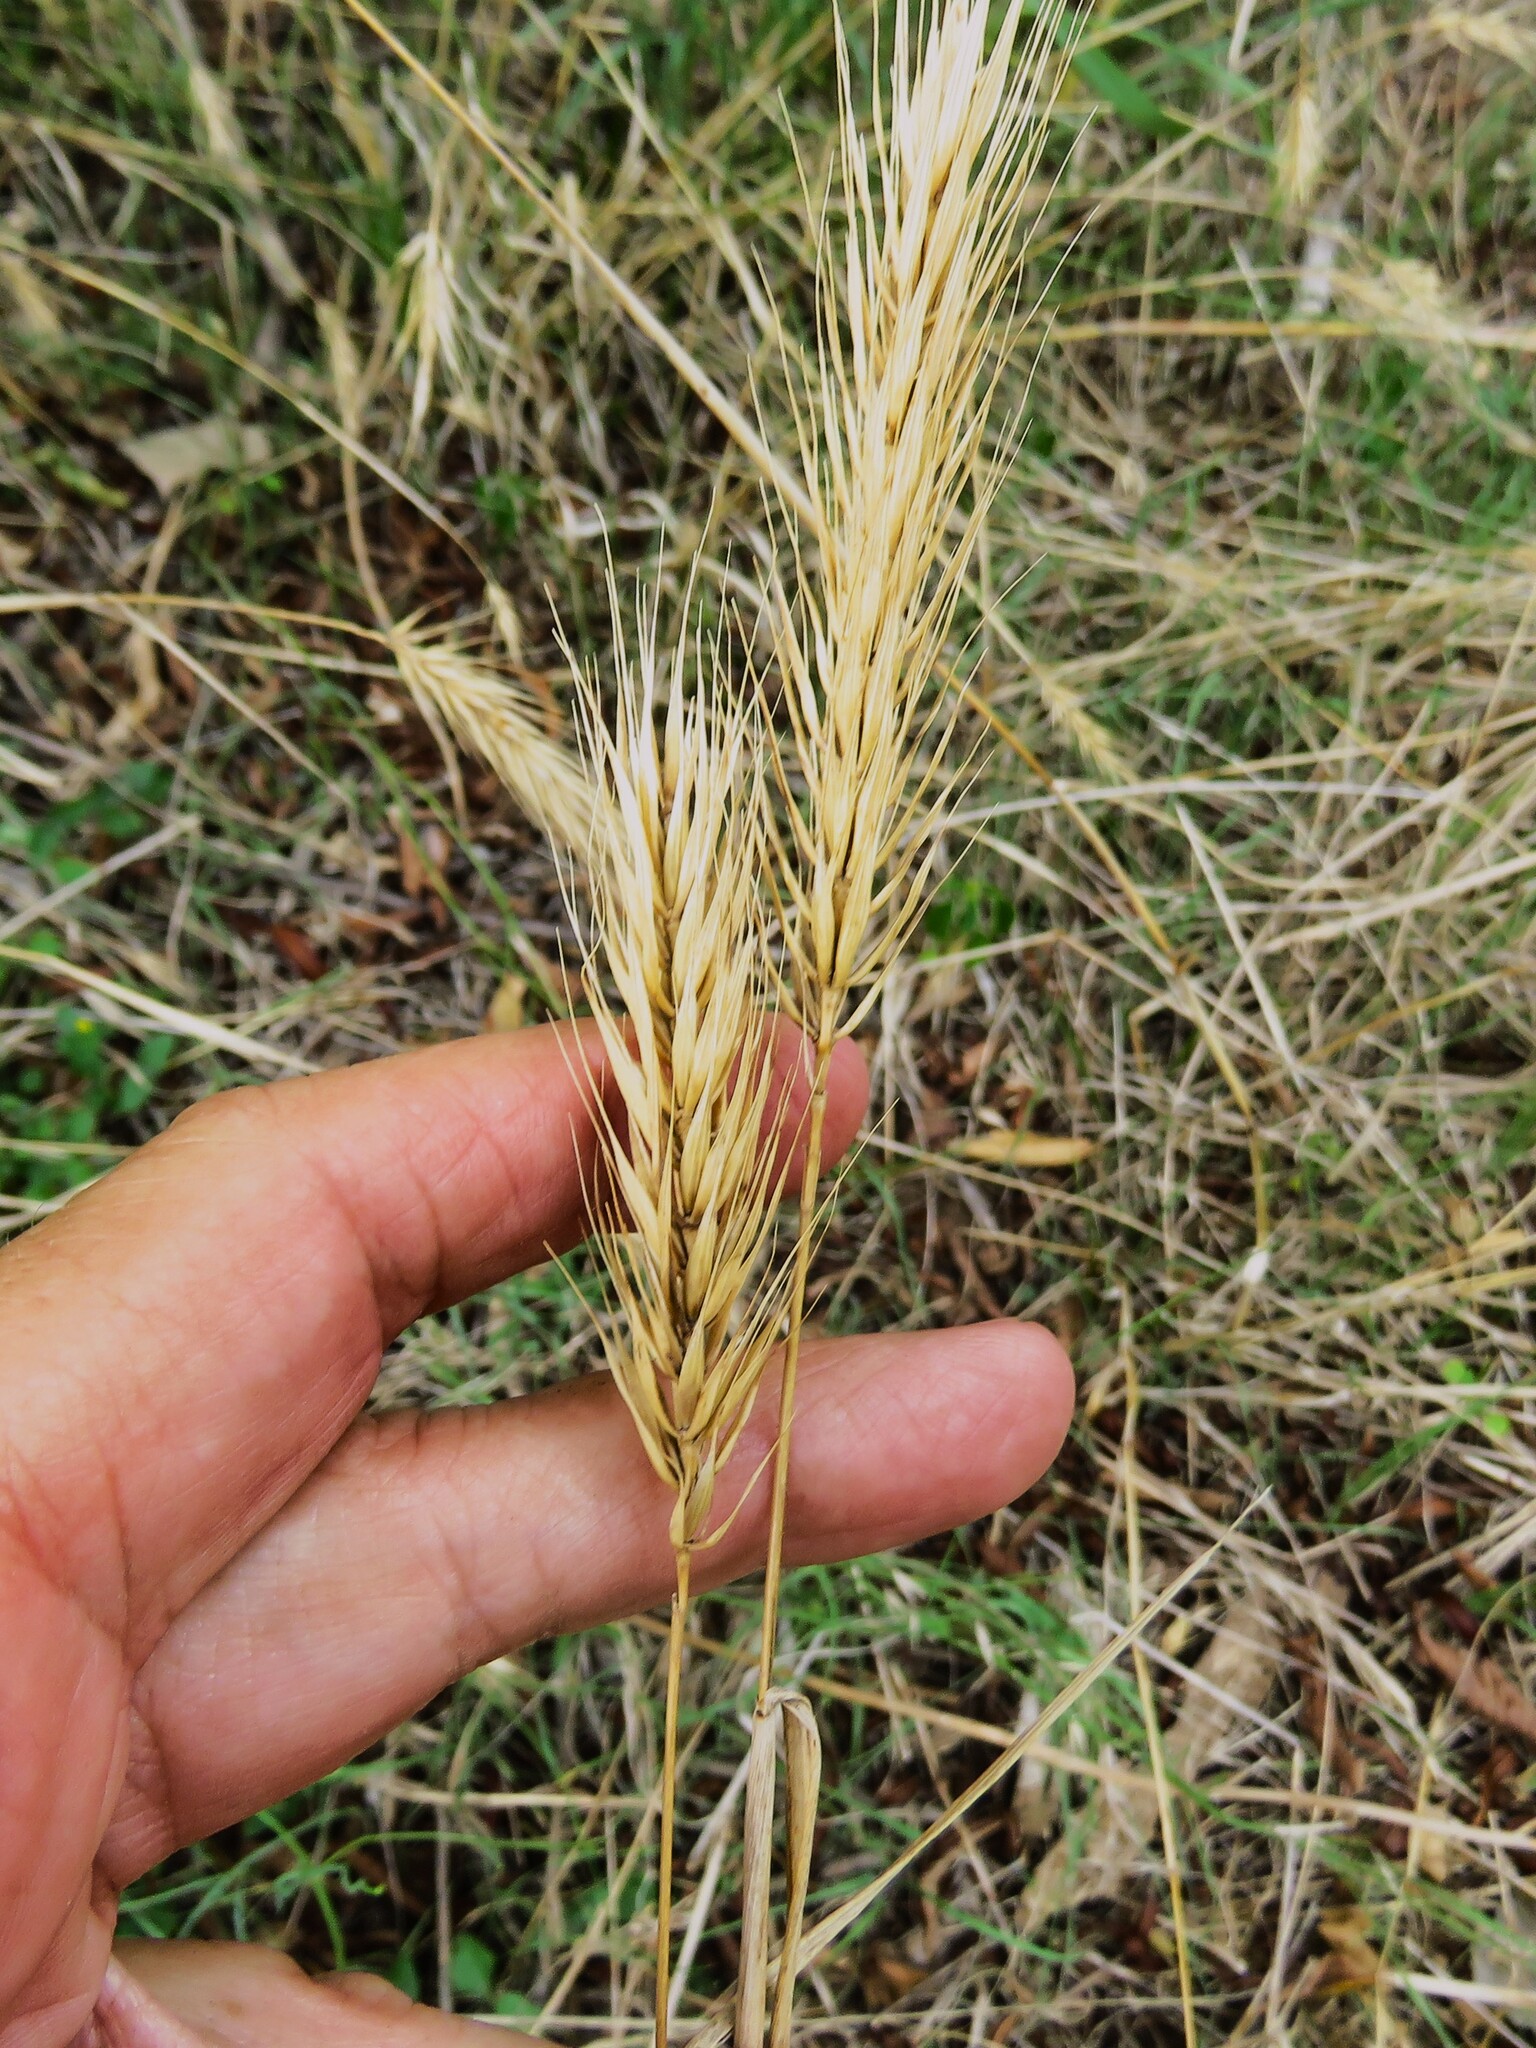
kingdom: Plantae
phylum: Tracheophyta
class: Liliopsida
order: Poales
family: Poaceae
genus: Elymus
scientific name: Elymus virginicus
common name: Common eastern wildrye
